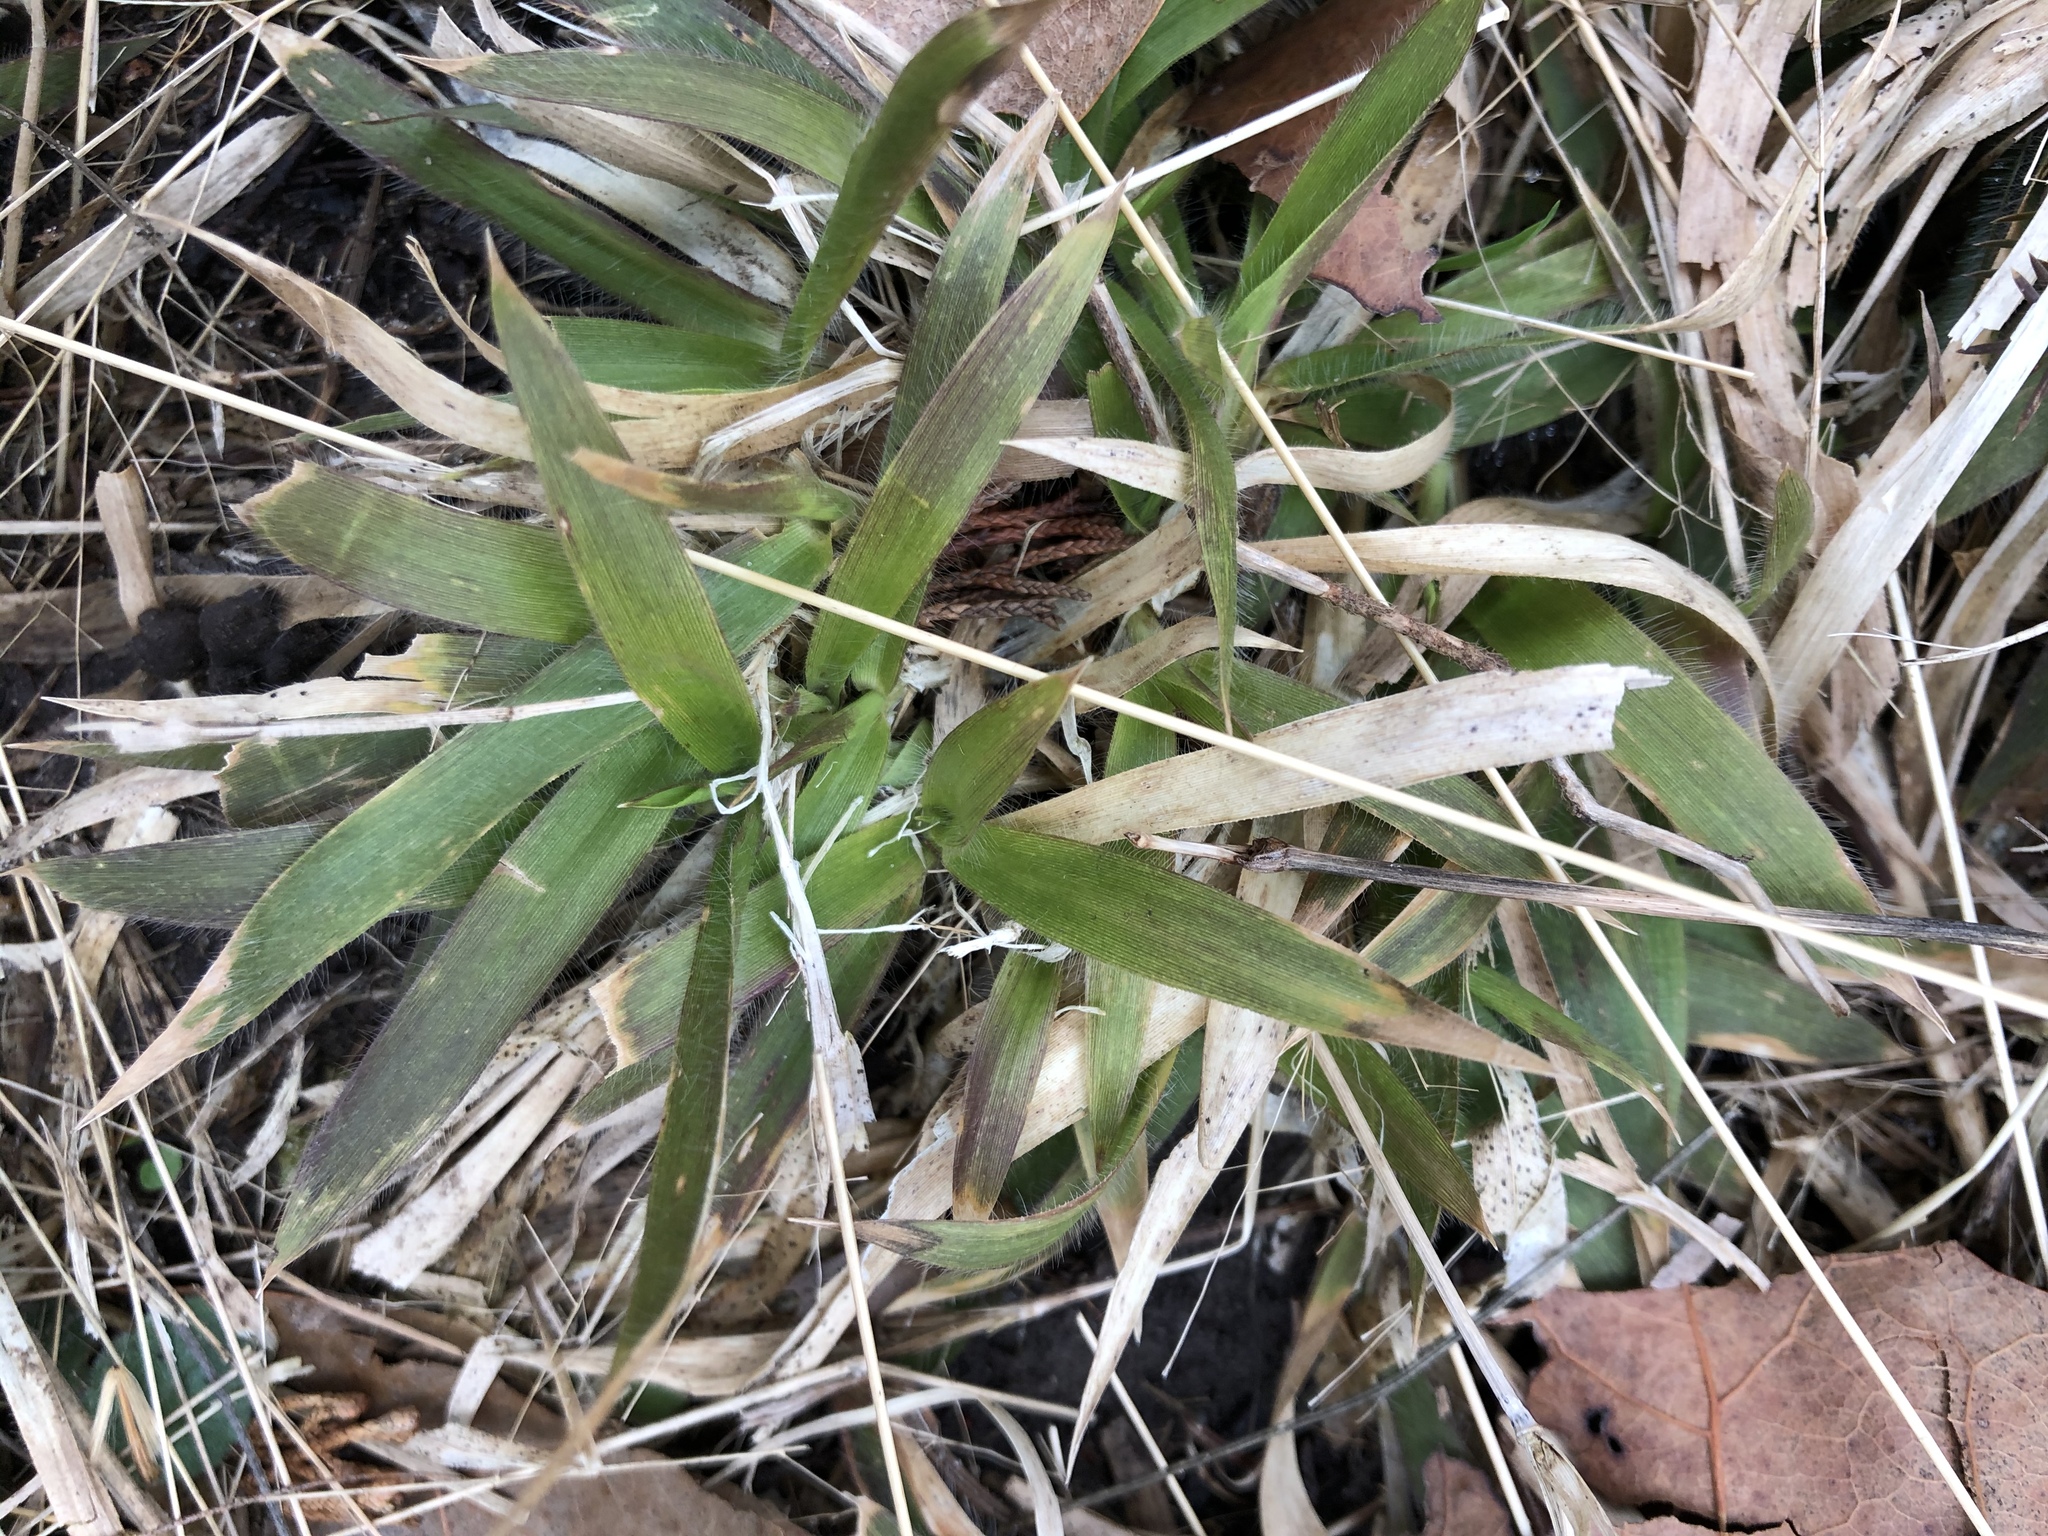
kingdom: Plantae
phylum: Tracheophyta
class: Liliopsida
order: Poales
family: Poaceae
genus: Dichanthelium
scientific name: Dichanthelium laxiflorum
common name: Soft-tuft panic grass
